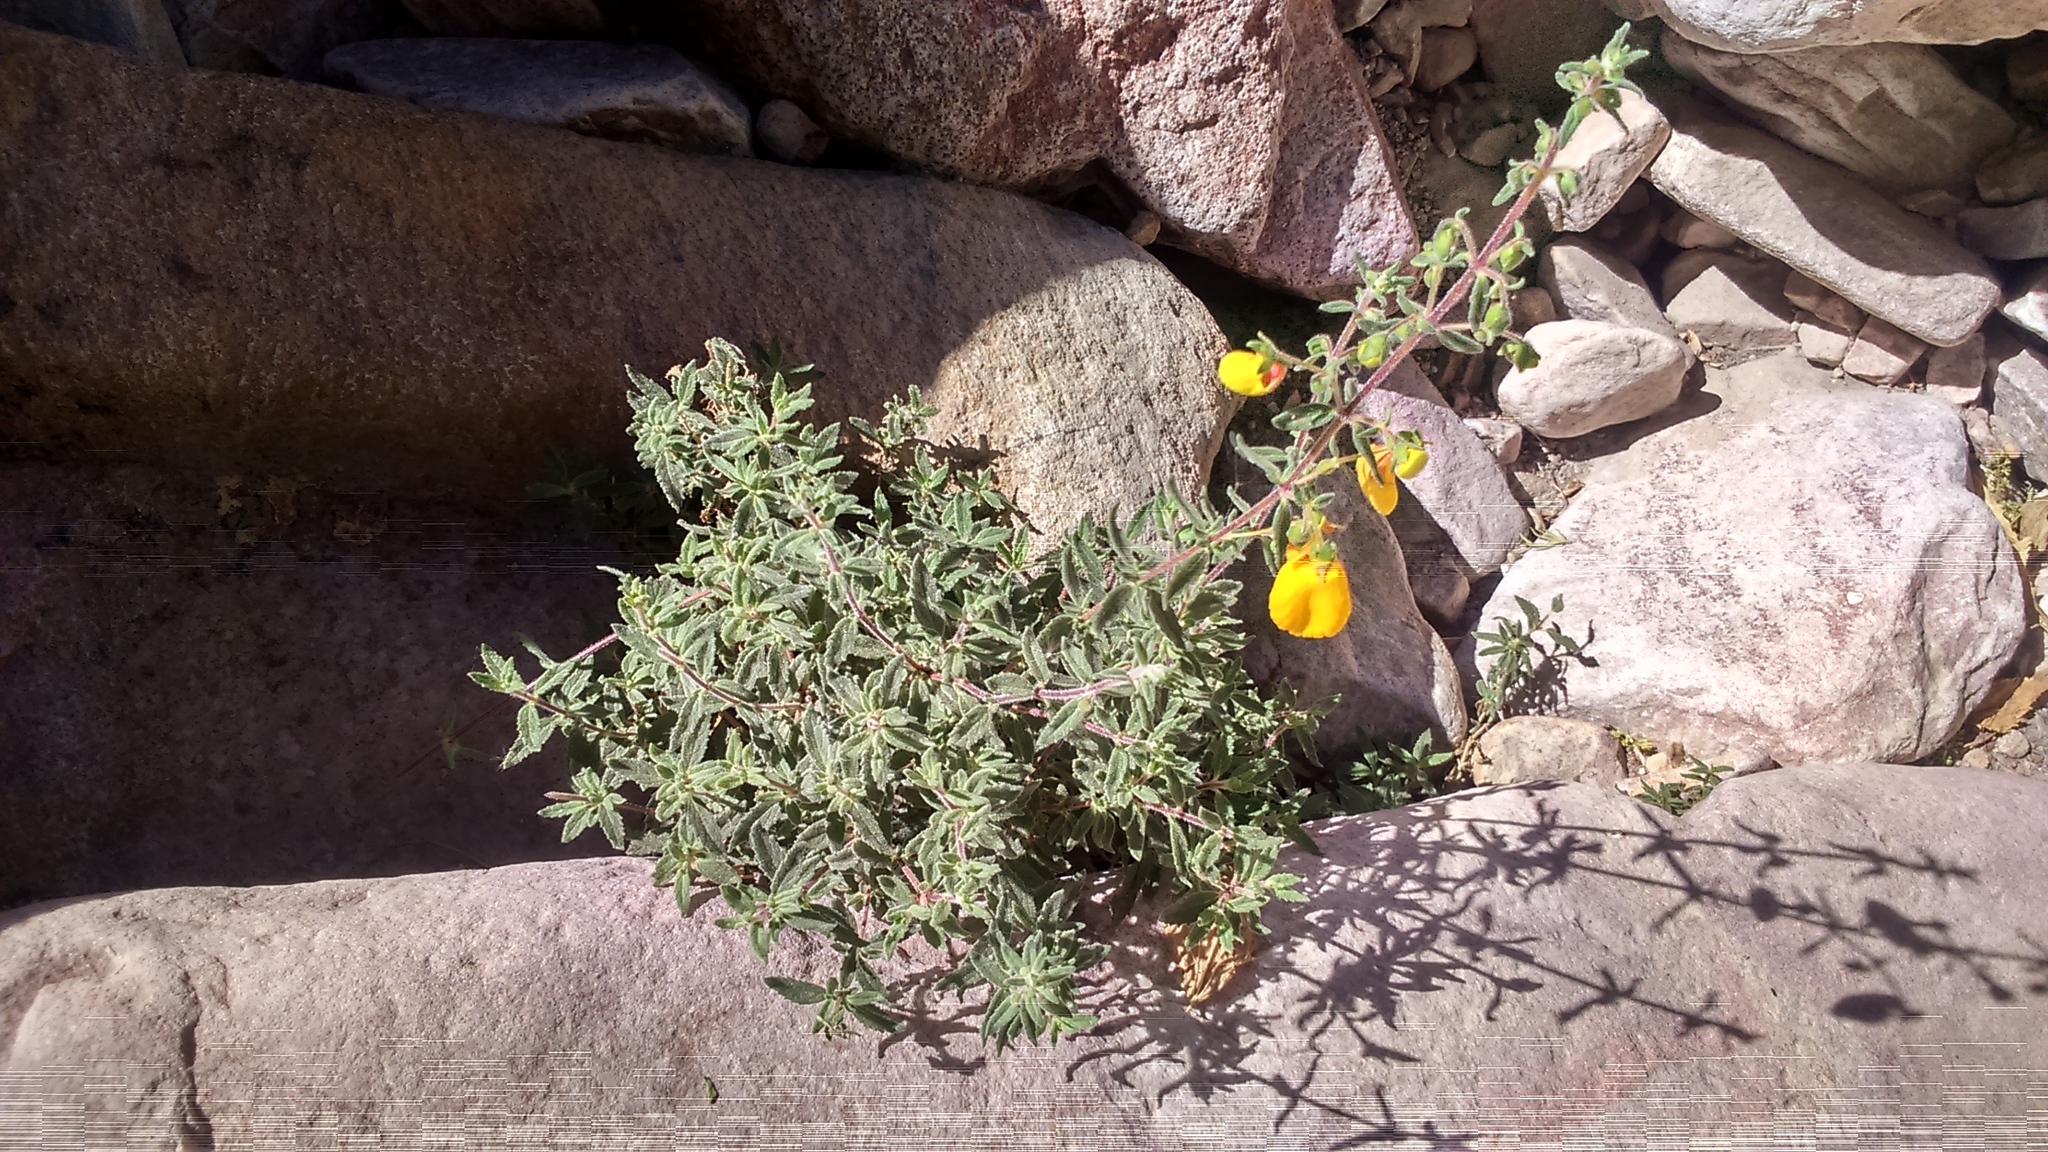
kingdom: Plantae
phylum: Tracheophyta
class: Magnoliopsida
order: Lamiales
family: Calceolariaceae
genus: Calceolaria
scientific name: Calceolaria ajugoides
